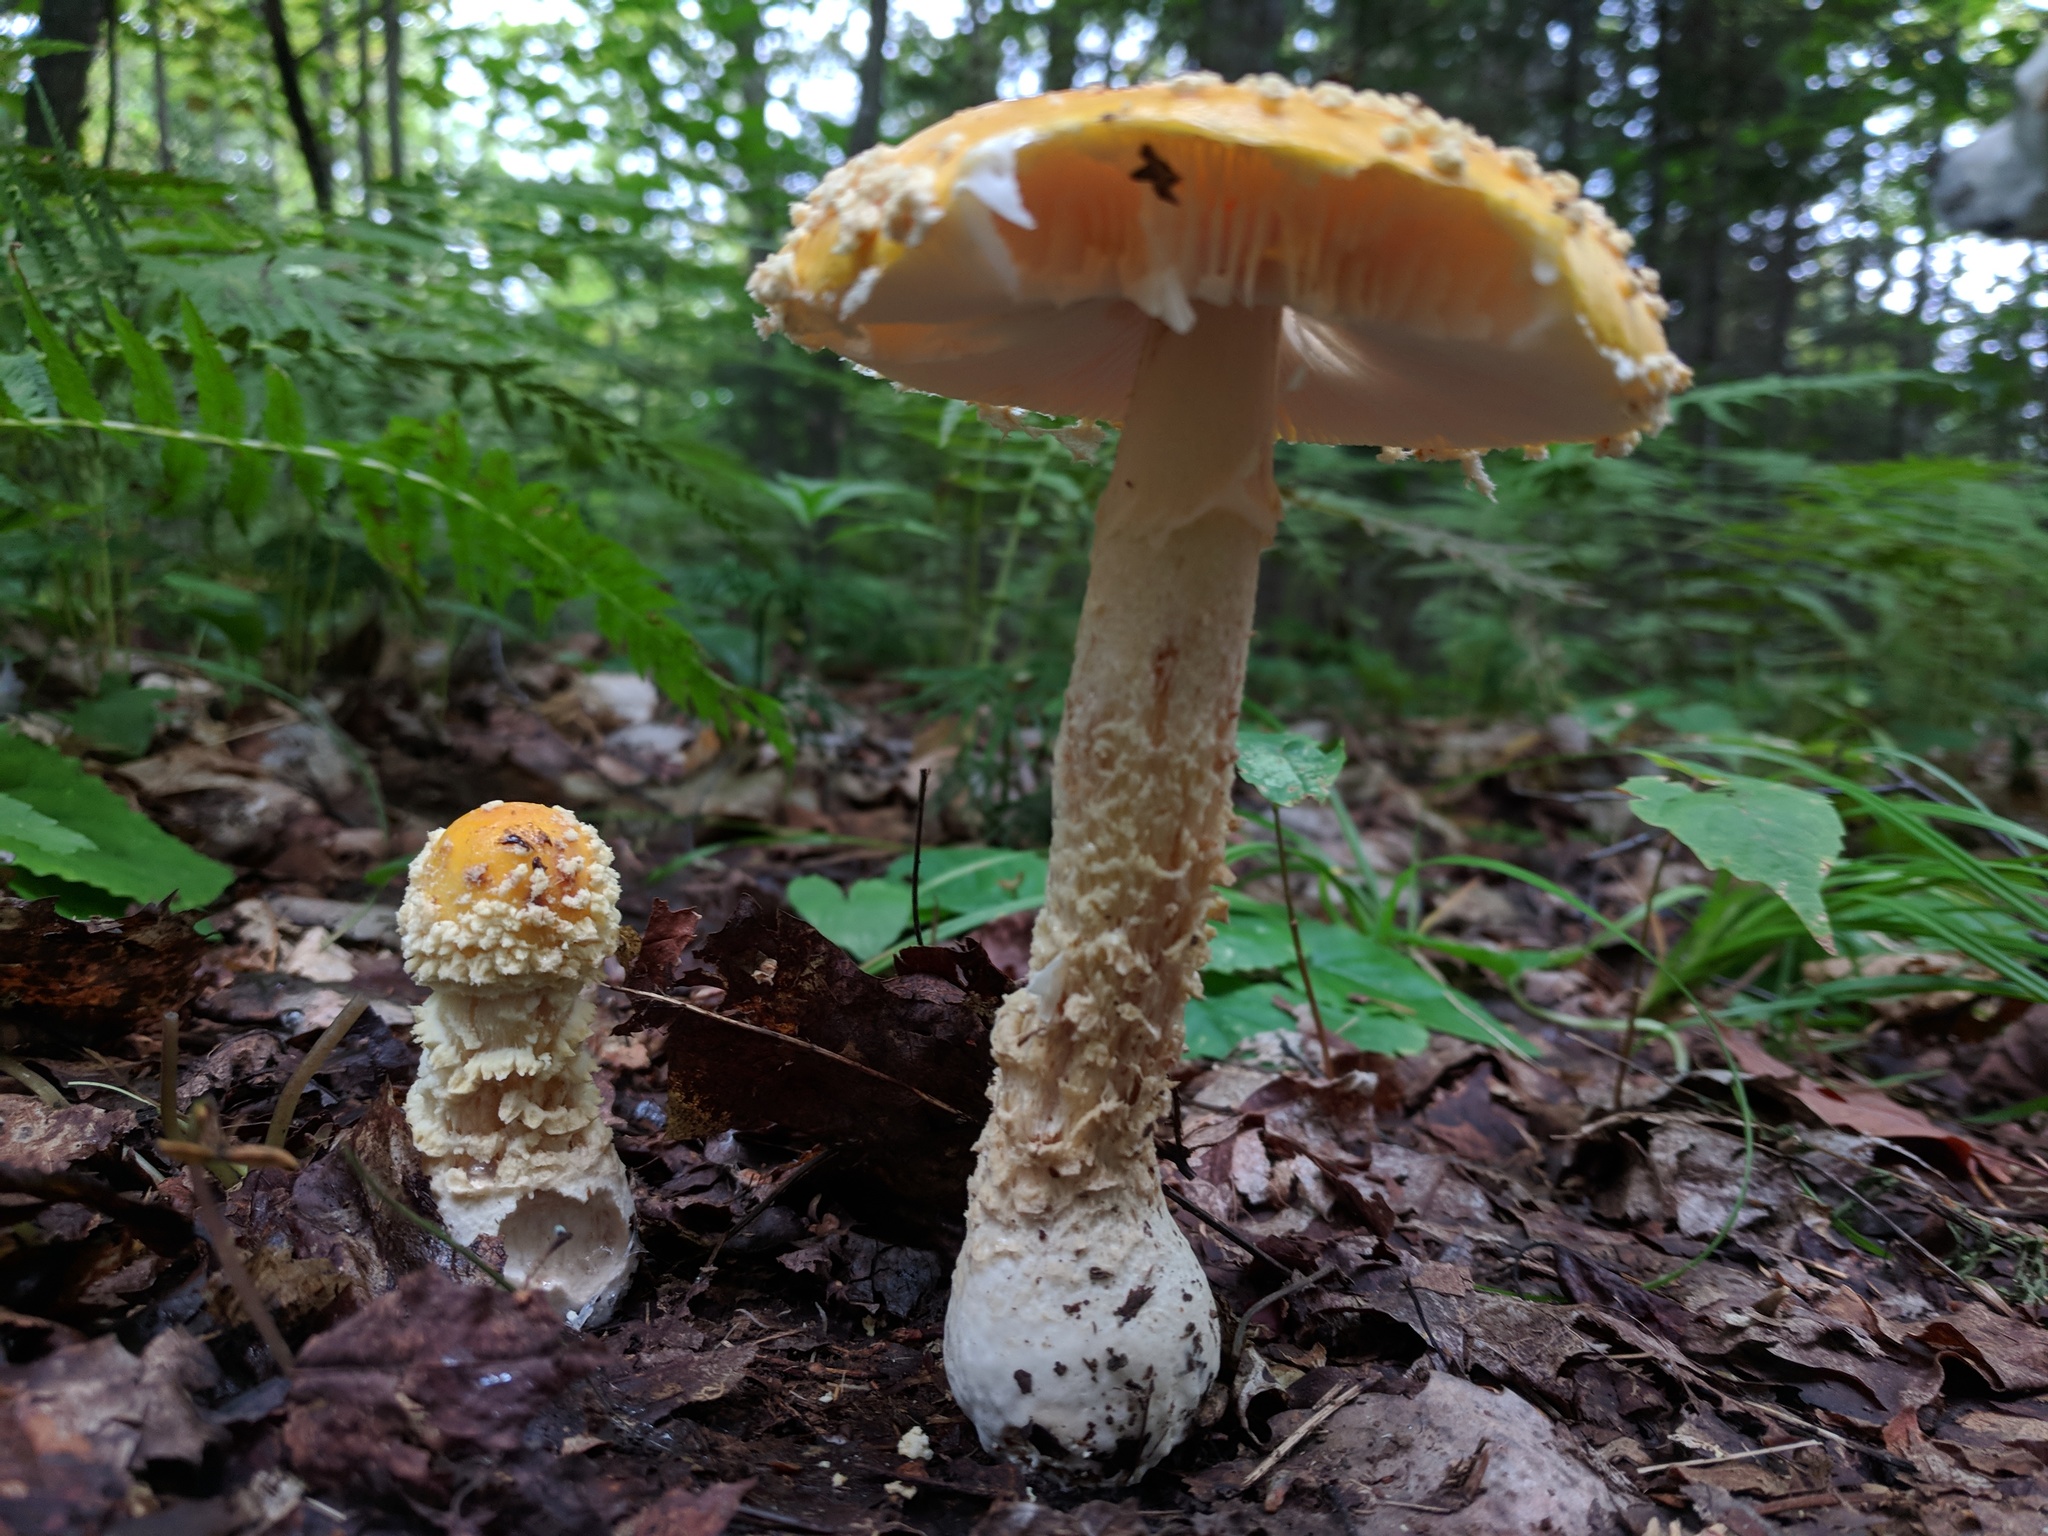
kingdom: Fungi
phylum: Basidiomycota
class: Agaricomycetes
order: Agaricales
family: Amanitaceae
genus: Amanita
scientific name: Amanita muscaria
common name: Fly agaric
